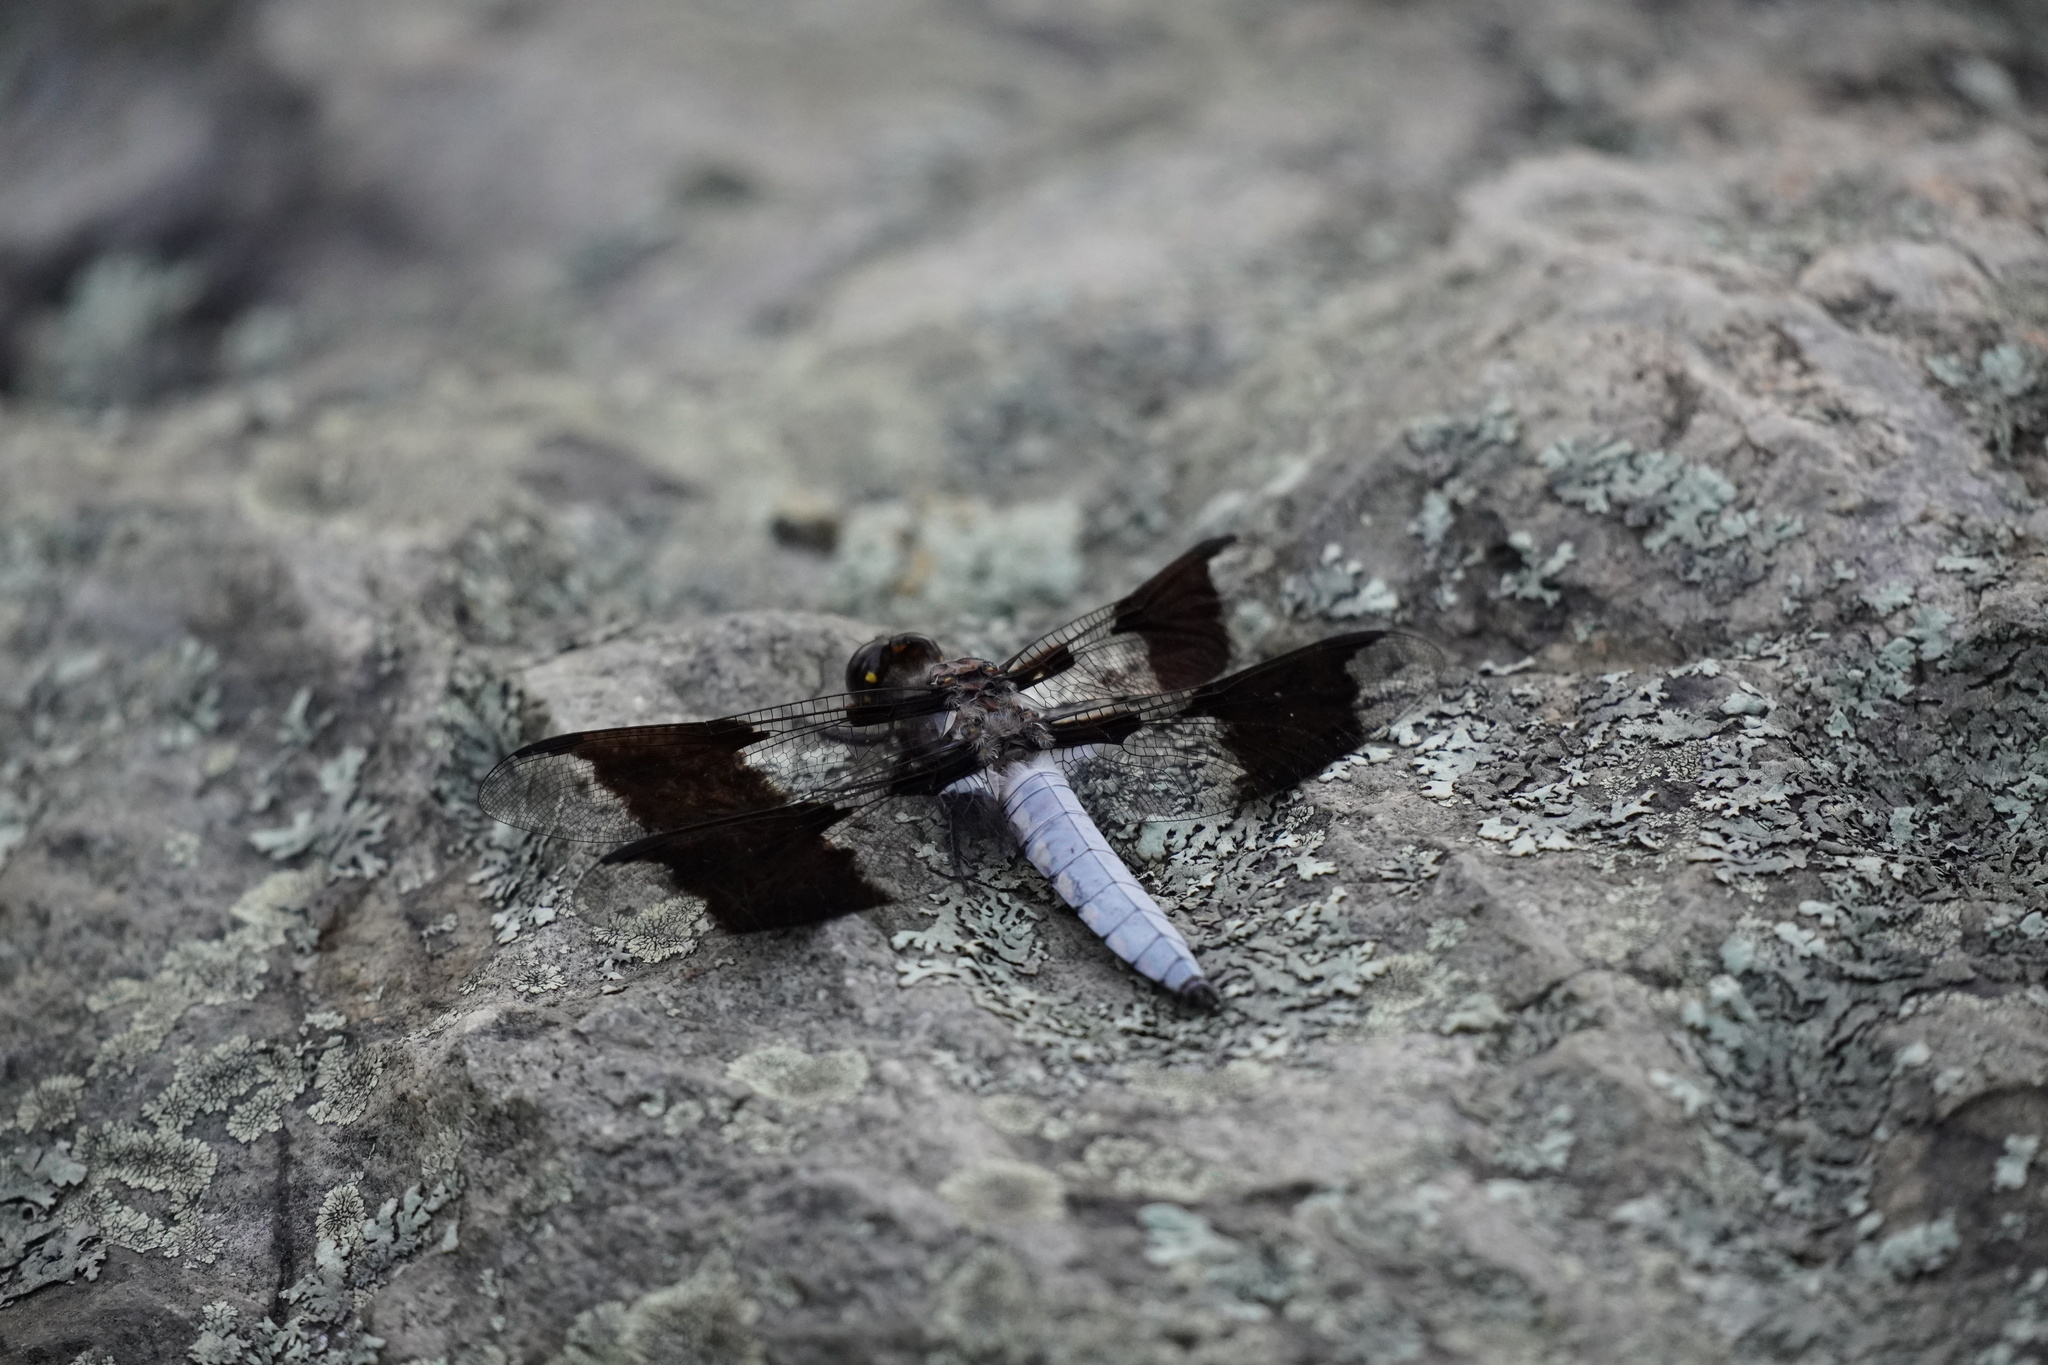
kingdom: Animalia
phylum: Arthropoda
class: Insecta
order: Odonata
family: Libellulidae
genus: Plathemis
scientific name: Plathemis lydia
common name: Common whitetail
